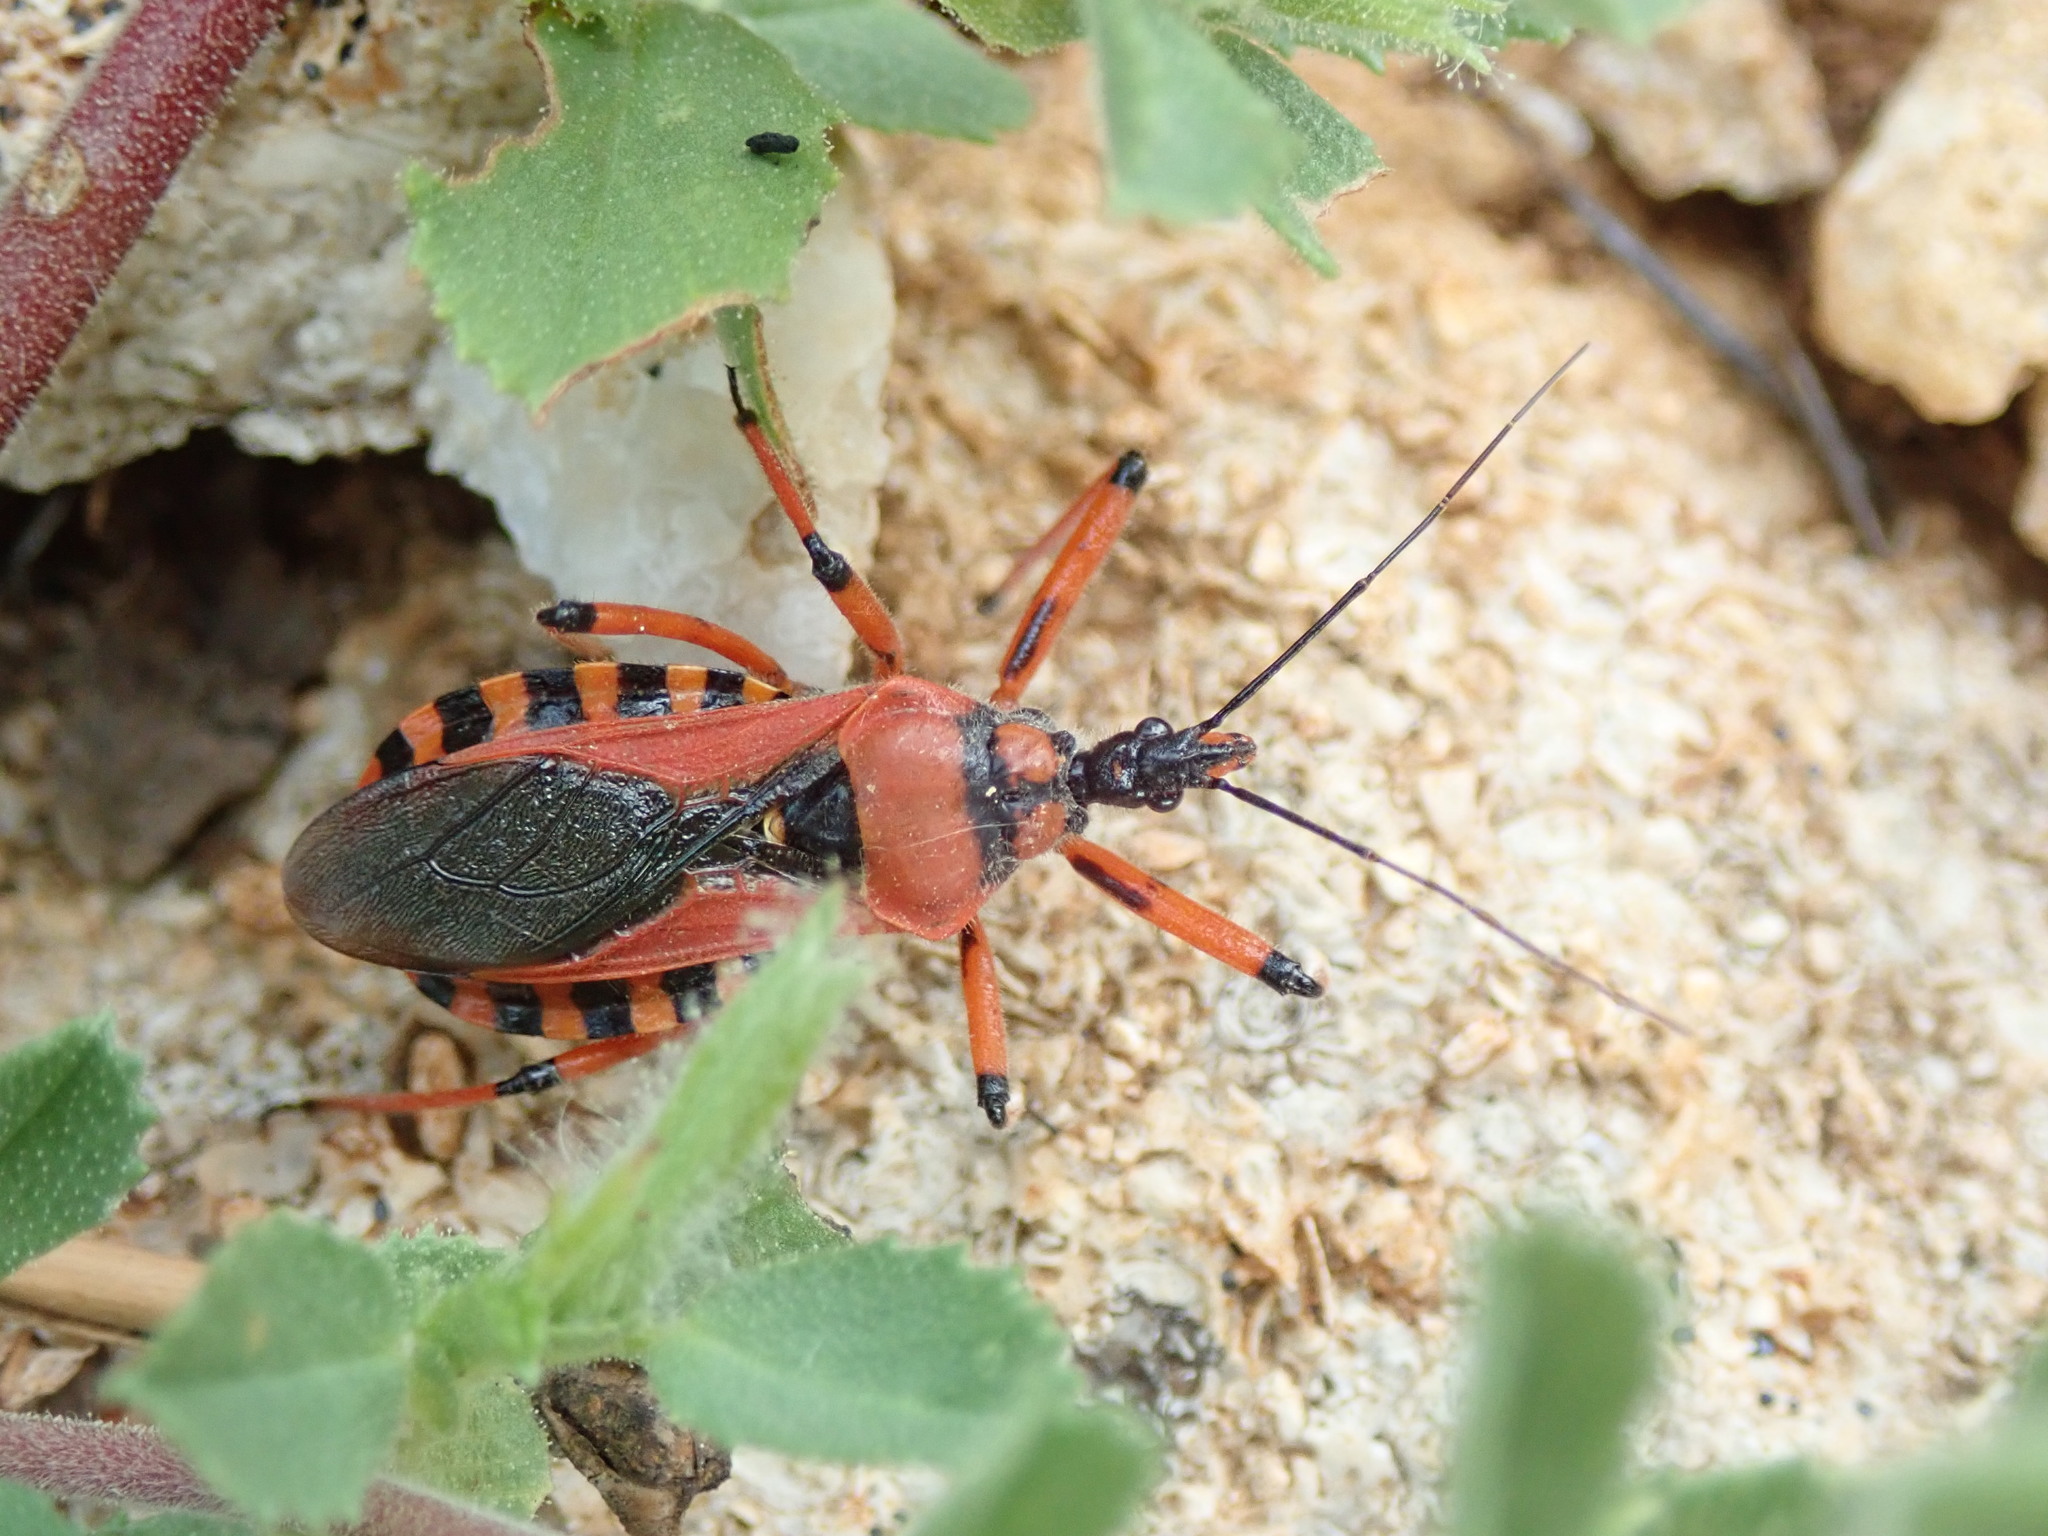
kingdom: Animalia
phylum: Arthropoda
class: Insecta
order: Hemiptera
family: Reduviidae
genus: Rhynocoris
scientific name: Rhynocoris iracundus
